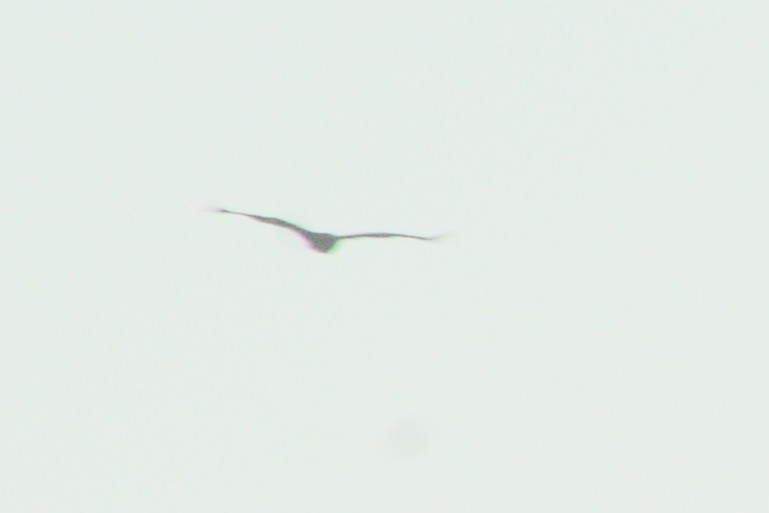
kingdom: Animalia
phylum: Chordata
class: Aves
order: Accipitriformes
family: Cathartidae
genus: Cathartes
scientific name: Cathartes aura
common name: Turkey vulture
